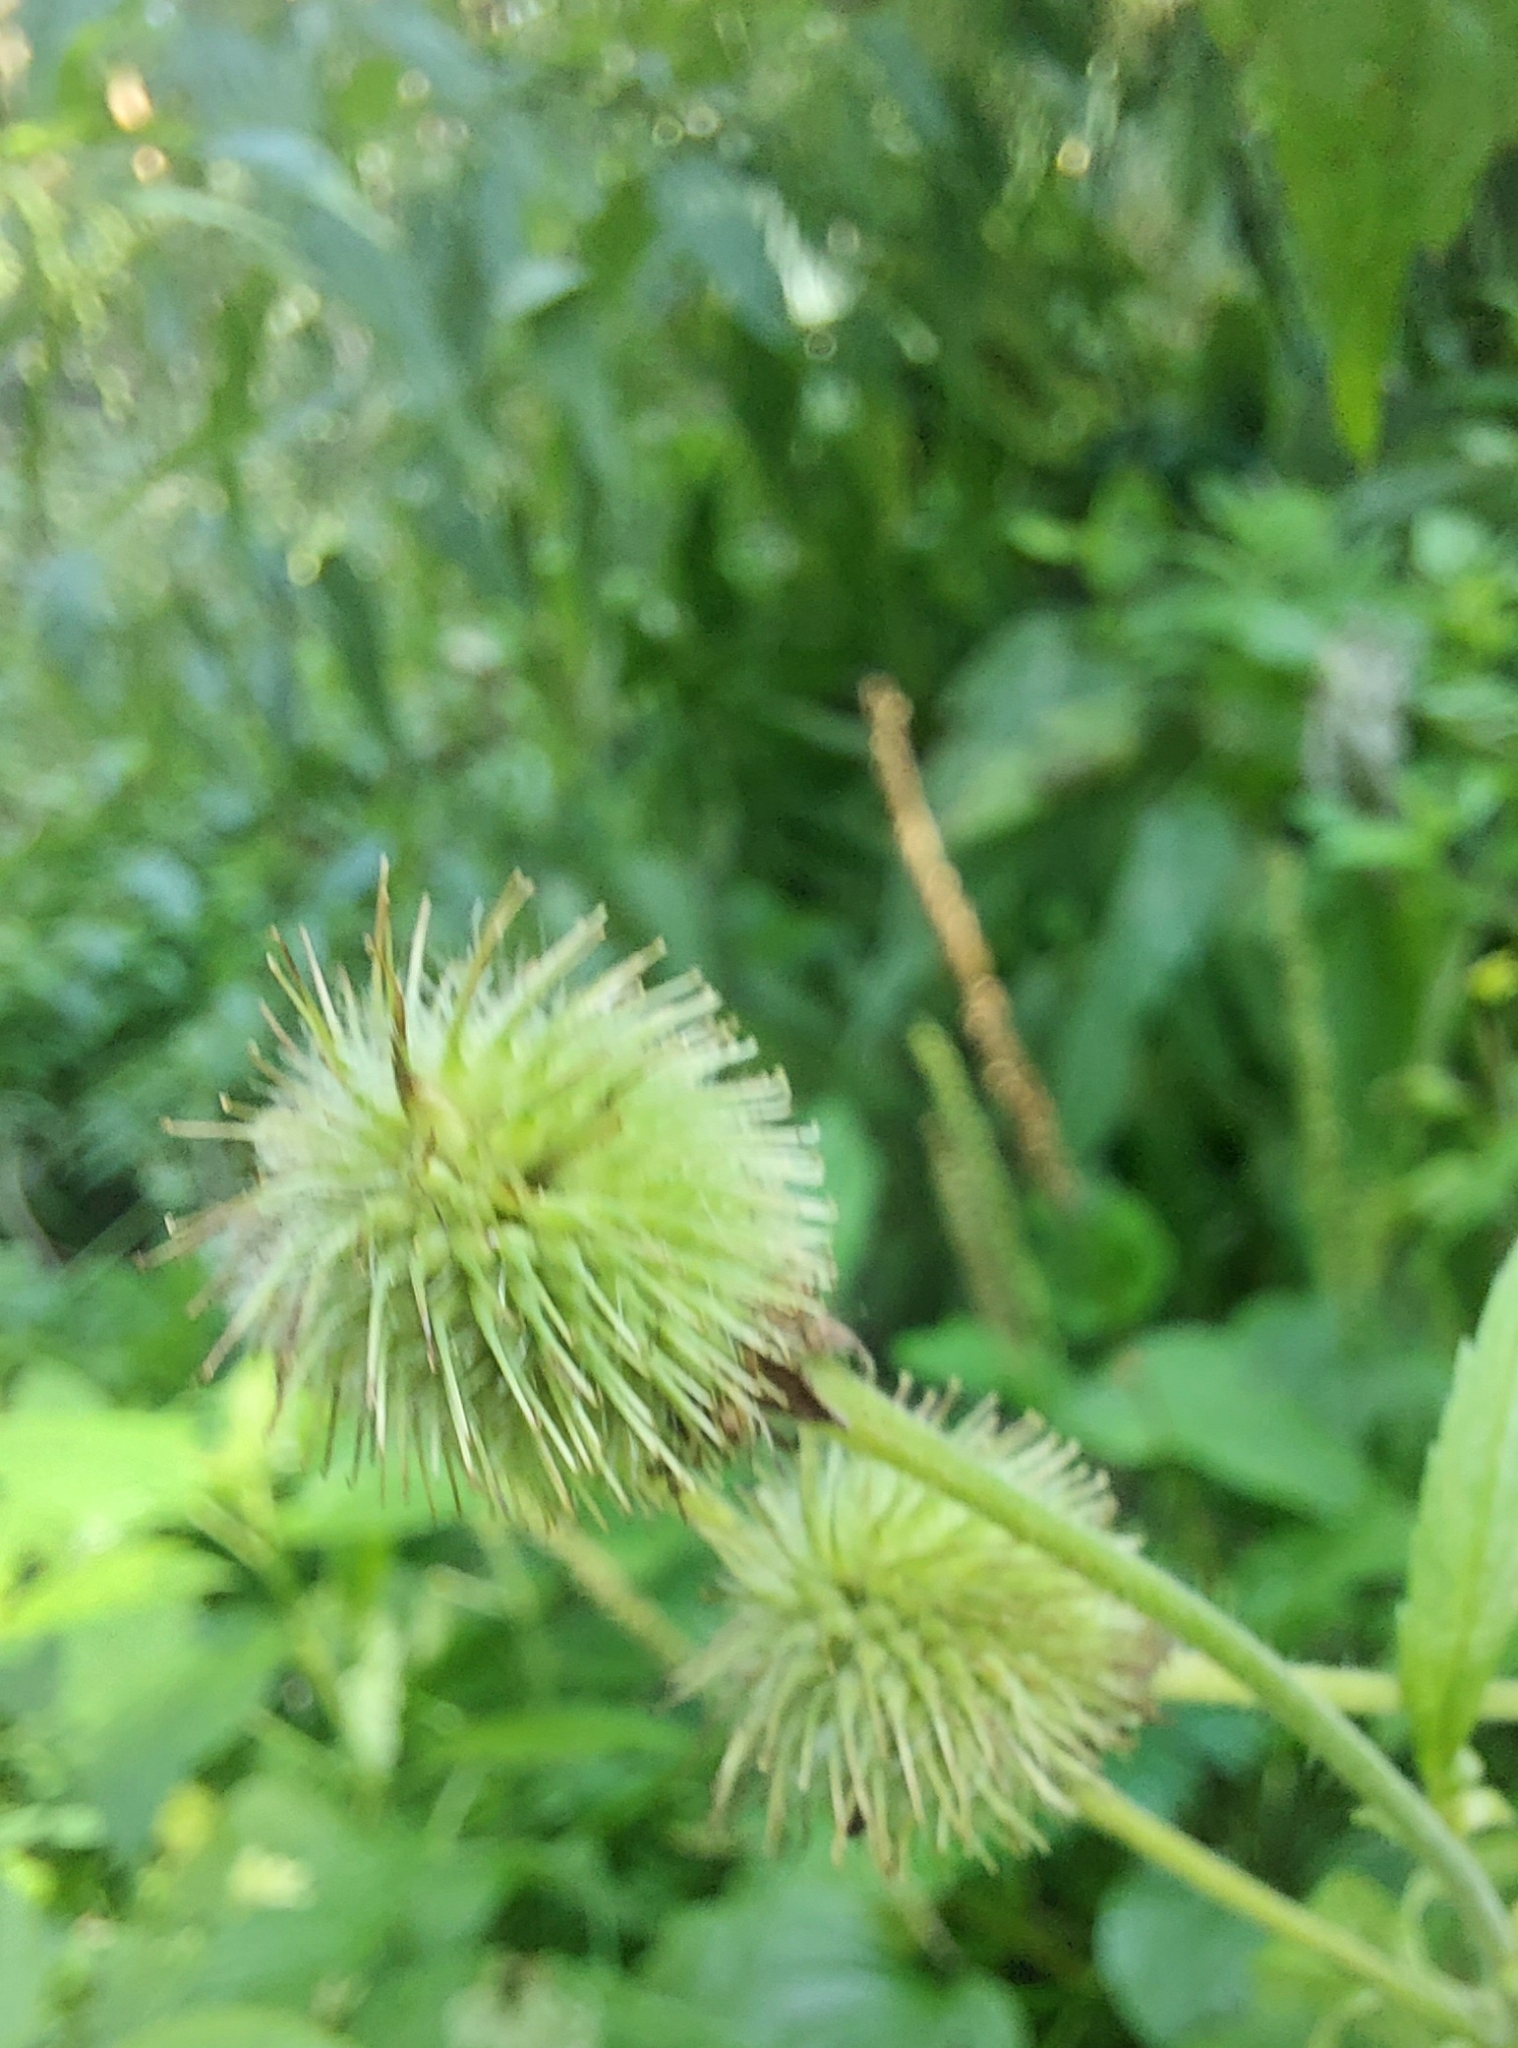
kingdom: Plantae
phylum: Tracheophyta
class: Magnoliopsida
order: Rosales
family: Rosaceae
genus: Geum
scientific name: Geum aleppicum
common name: Yellow avens
